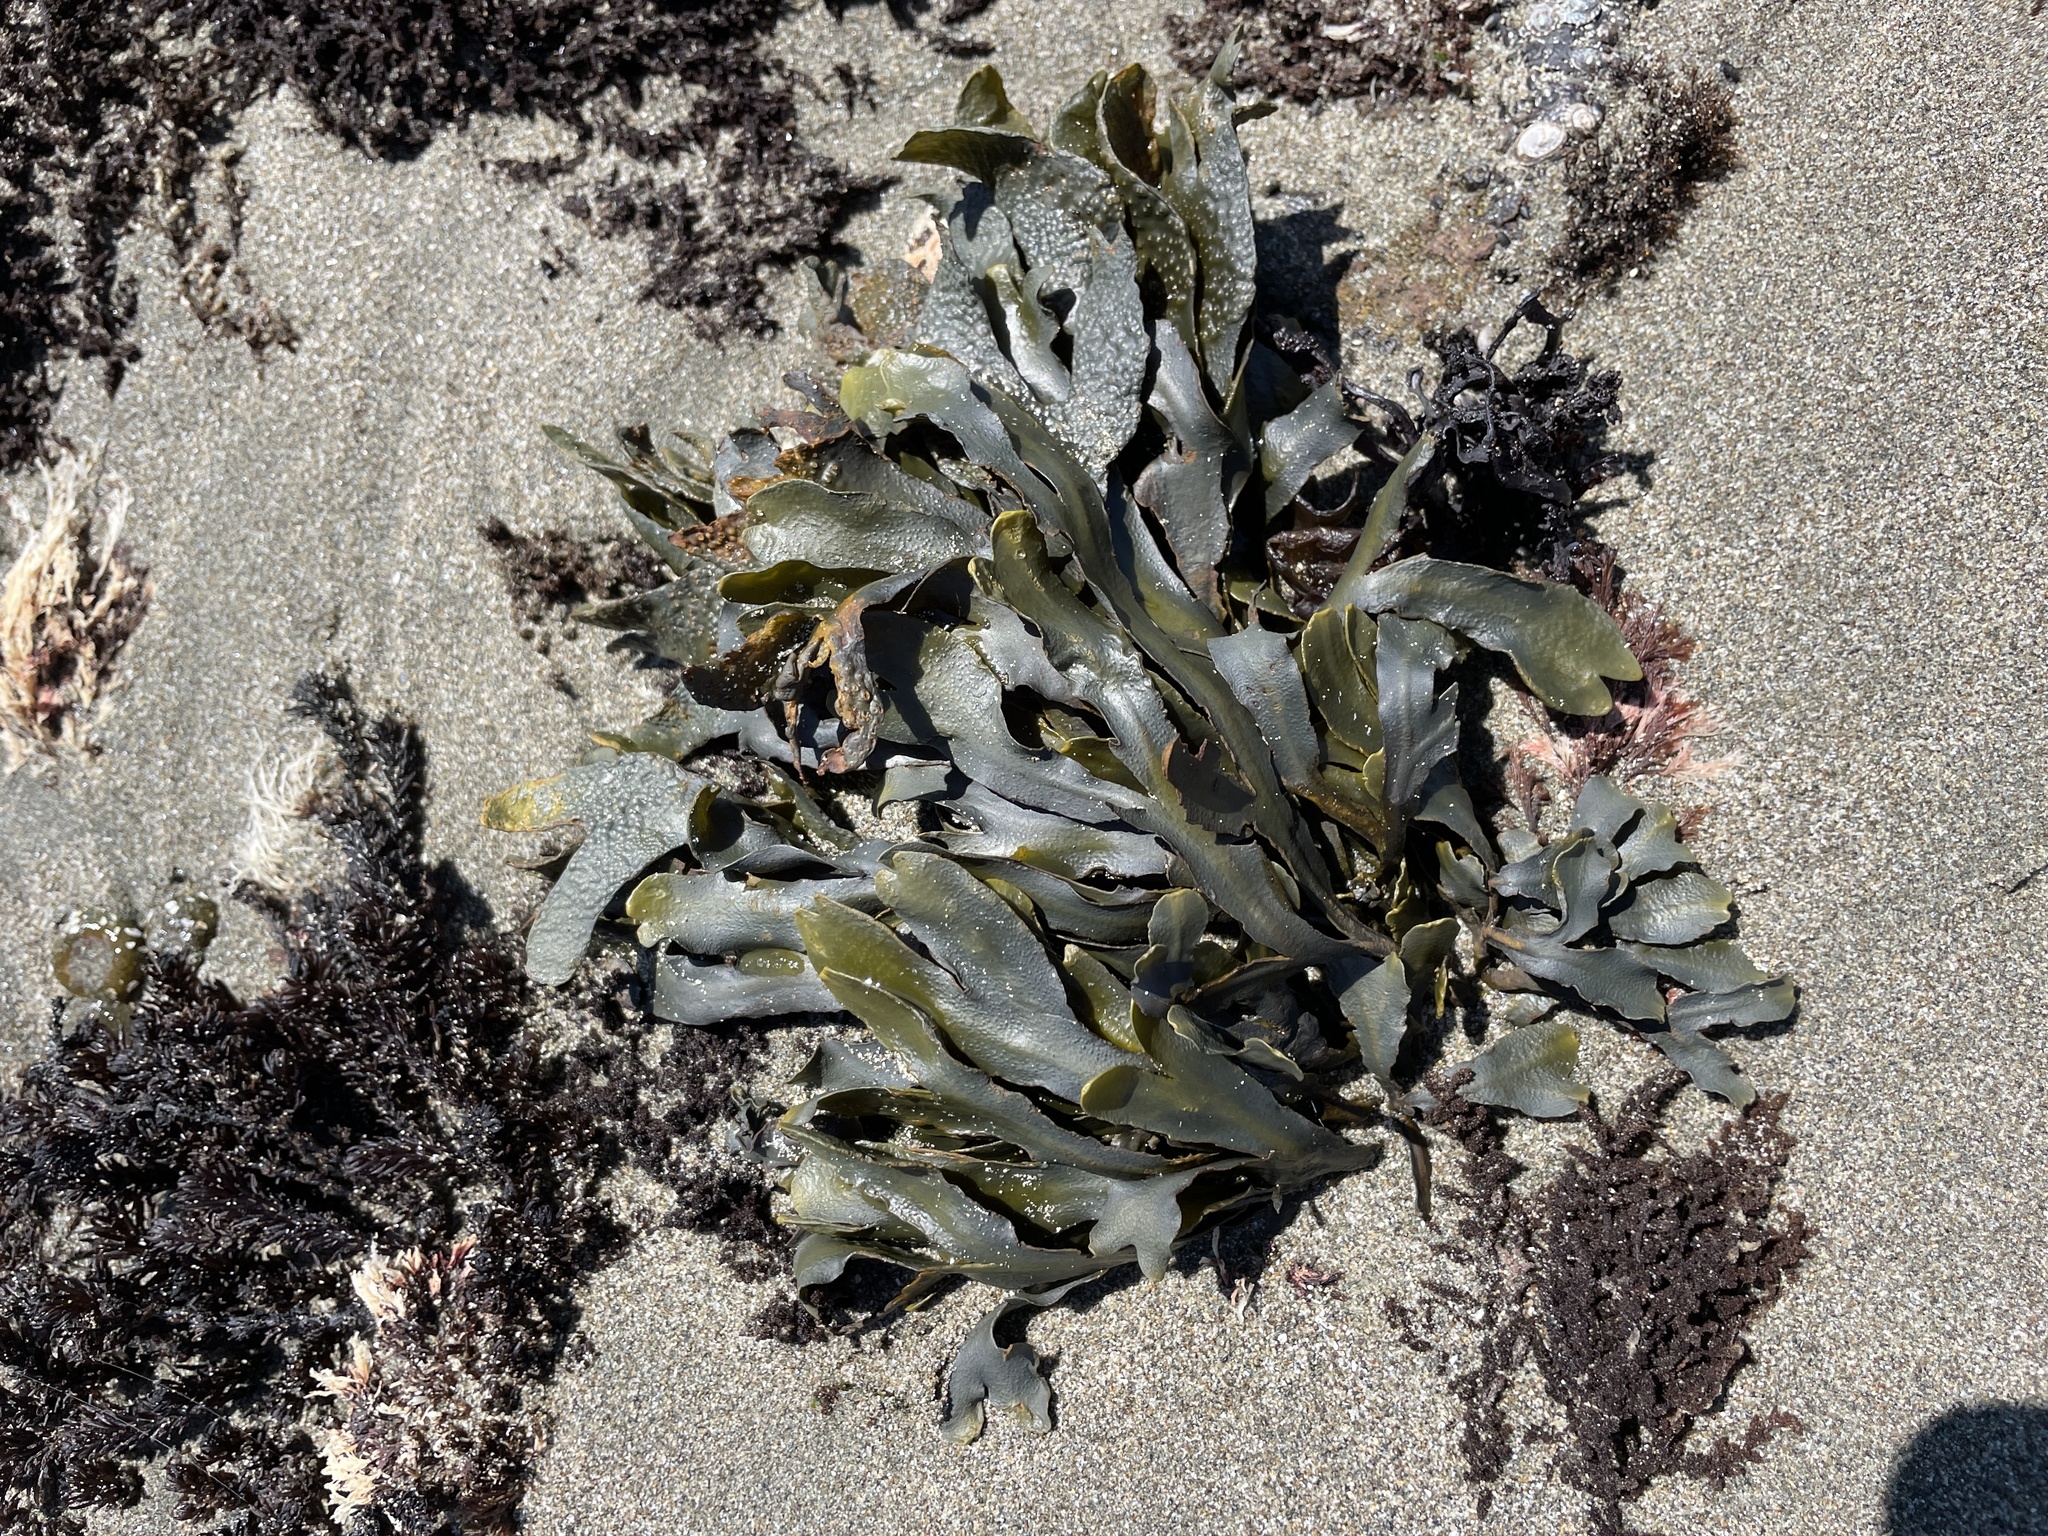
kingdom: Chromista
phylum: Ochrophyta
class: Phaeophyceae
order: Fucales
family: Fucaceae
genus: Fucus
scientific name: Fucus distichus
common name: Rockweed
